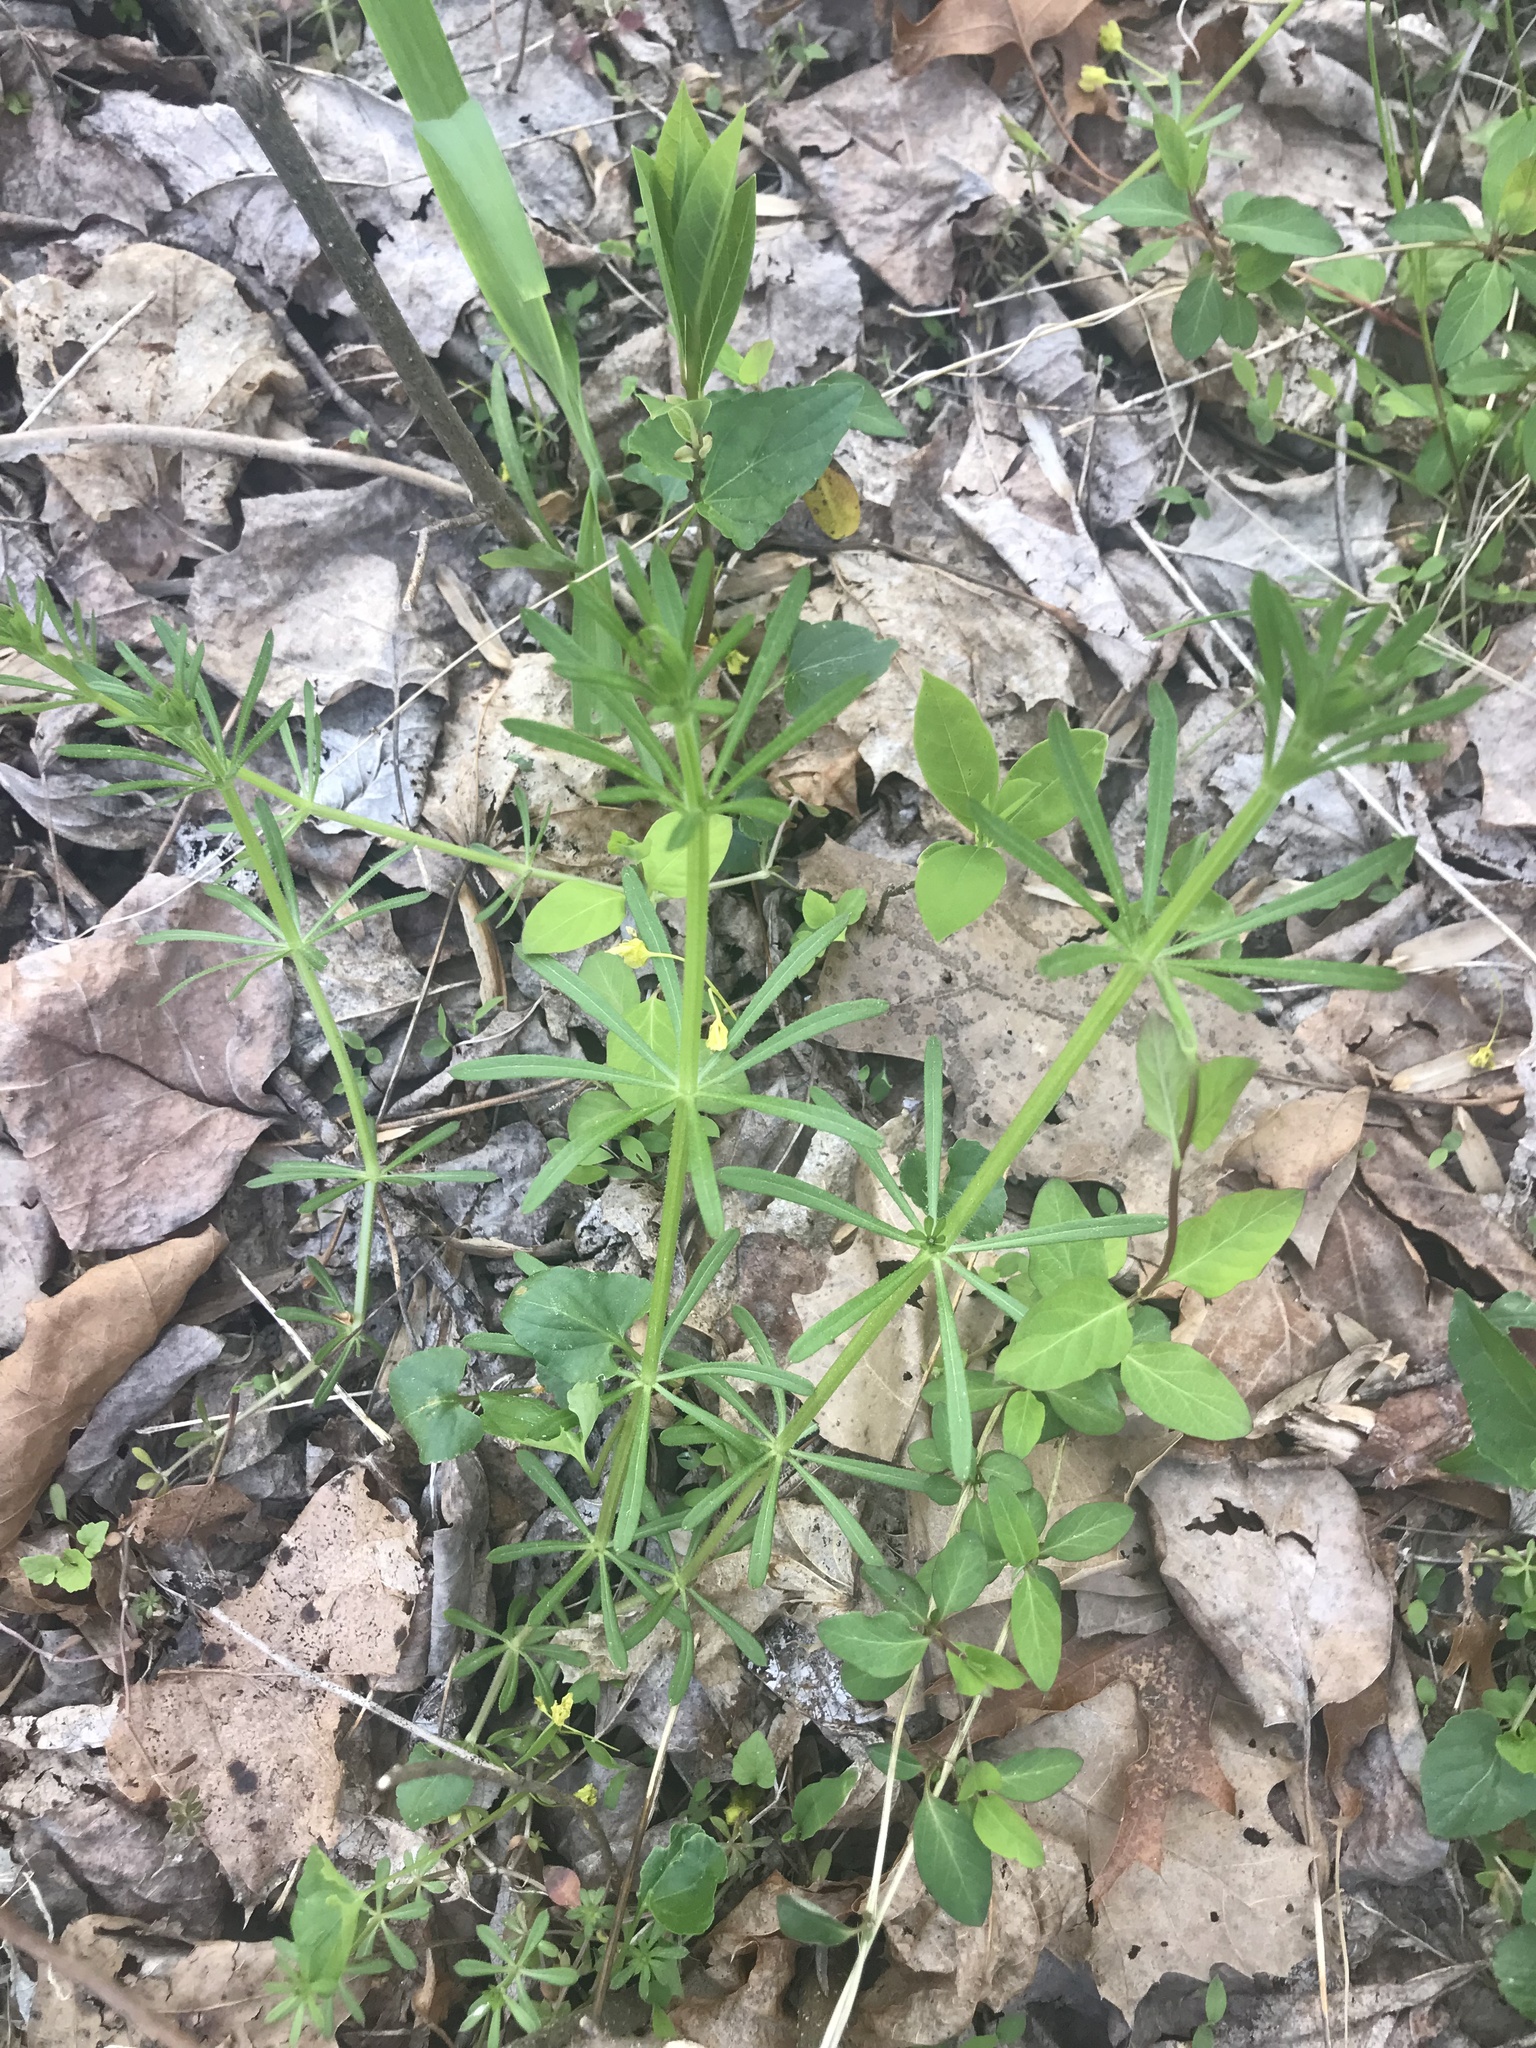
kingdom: Plantae
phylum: Tracheophyta
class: Magnoliopsida
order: Gentianales
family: Rubiaceae
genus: Galium
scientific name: Galium aparine
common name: Cleavers
